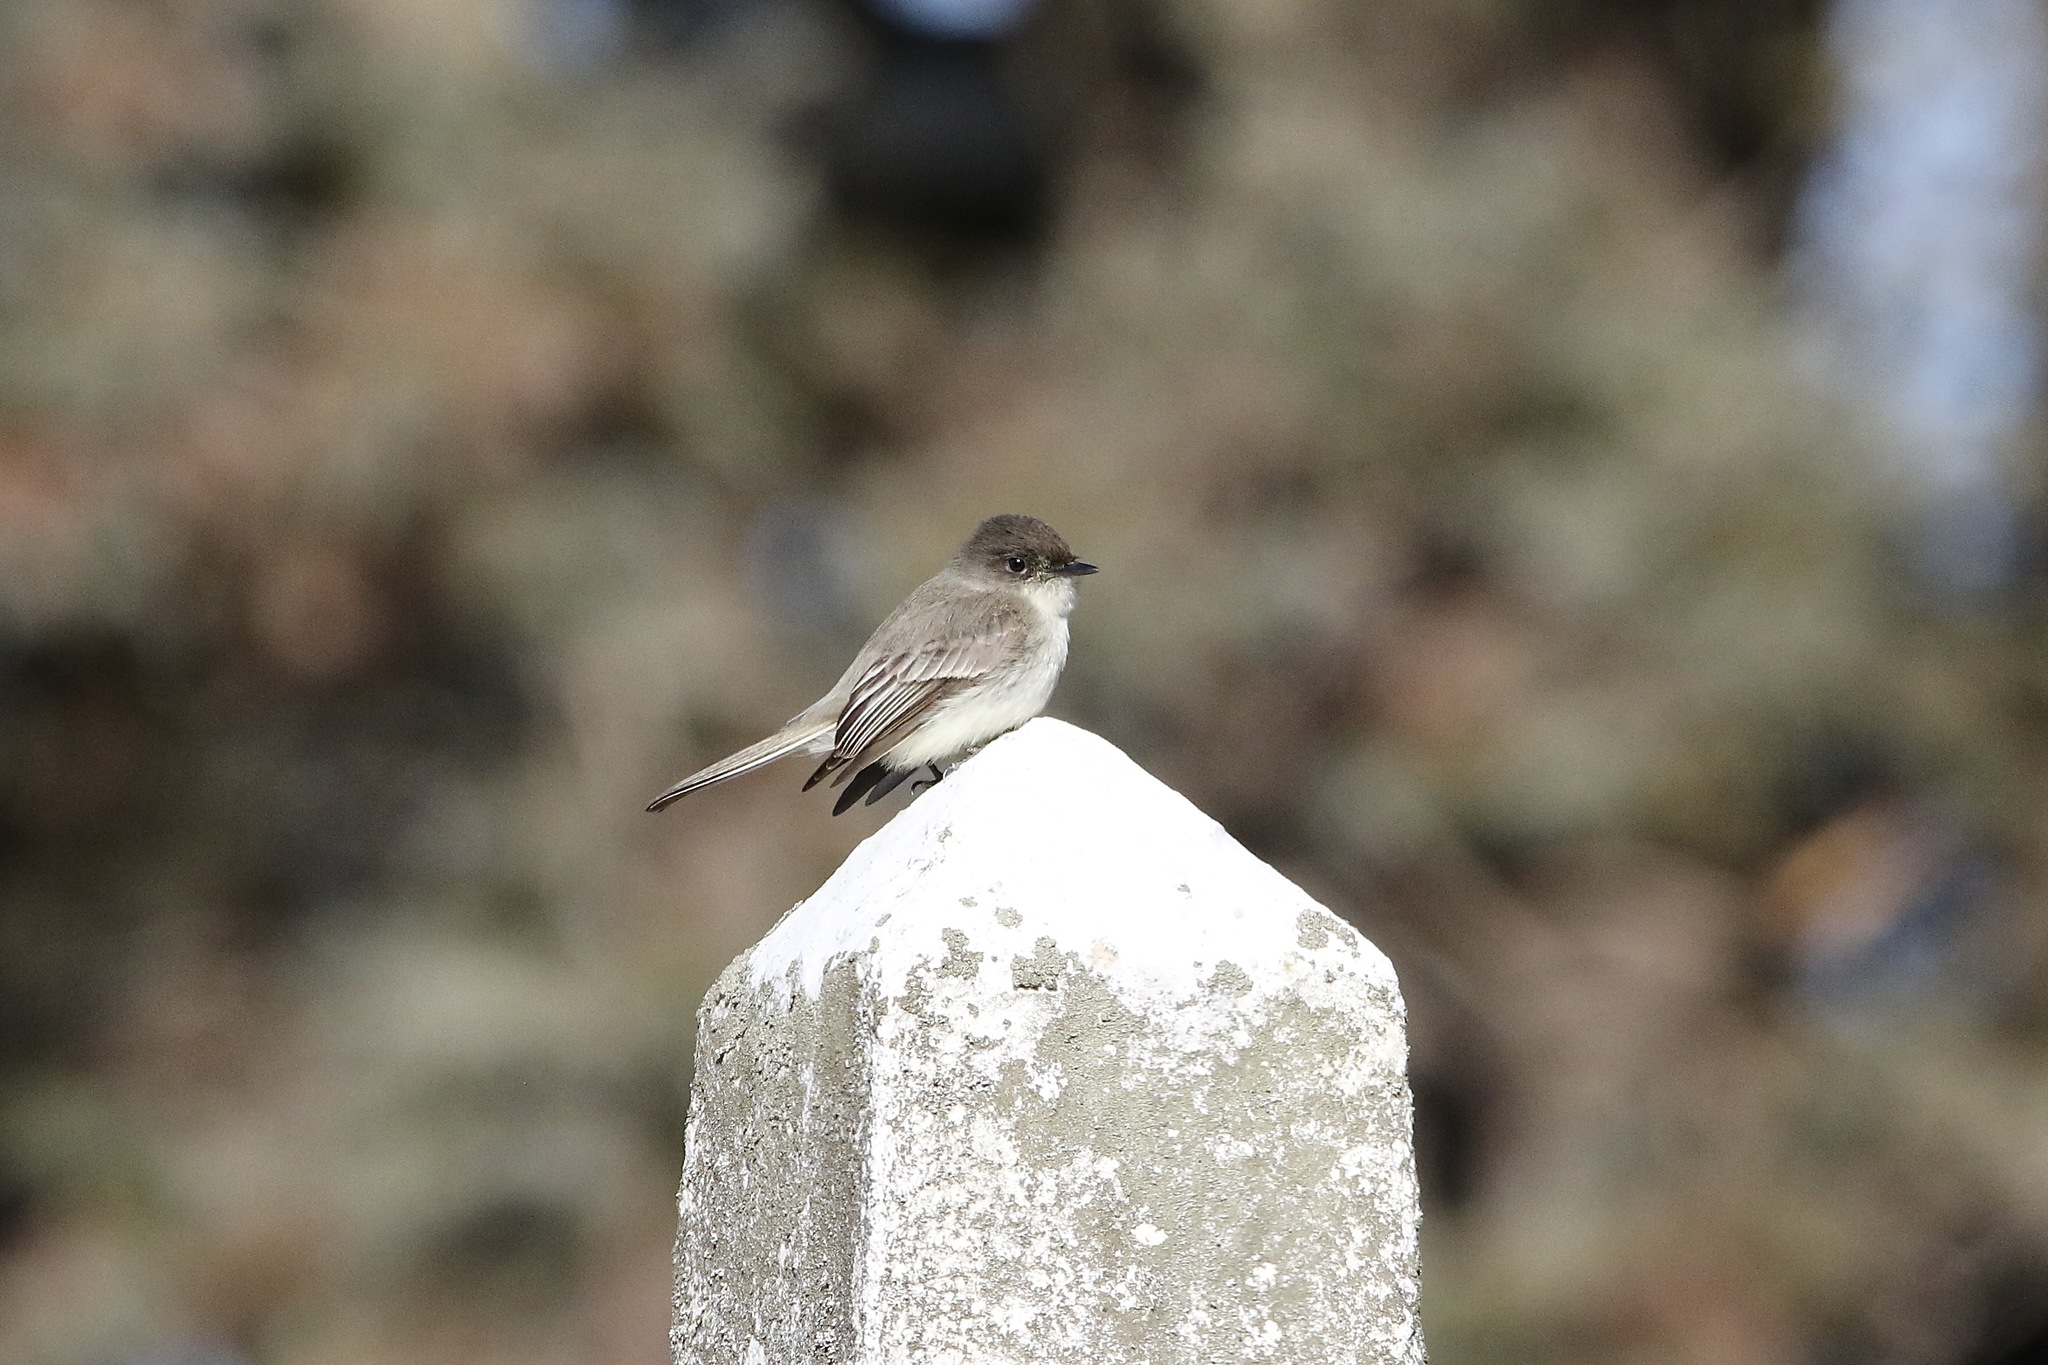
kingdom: Animalia
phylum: Chordata
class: Aves
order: Passeriformes
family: Tyrannidae
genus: Sayornis
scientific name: Sayornis phoebe
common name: Eastern phoebe
